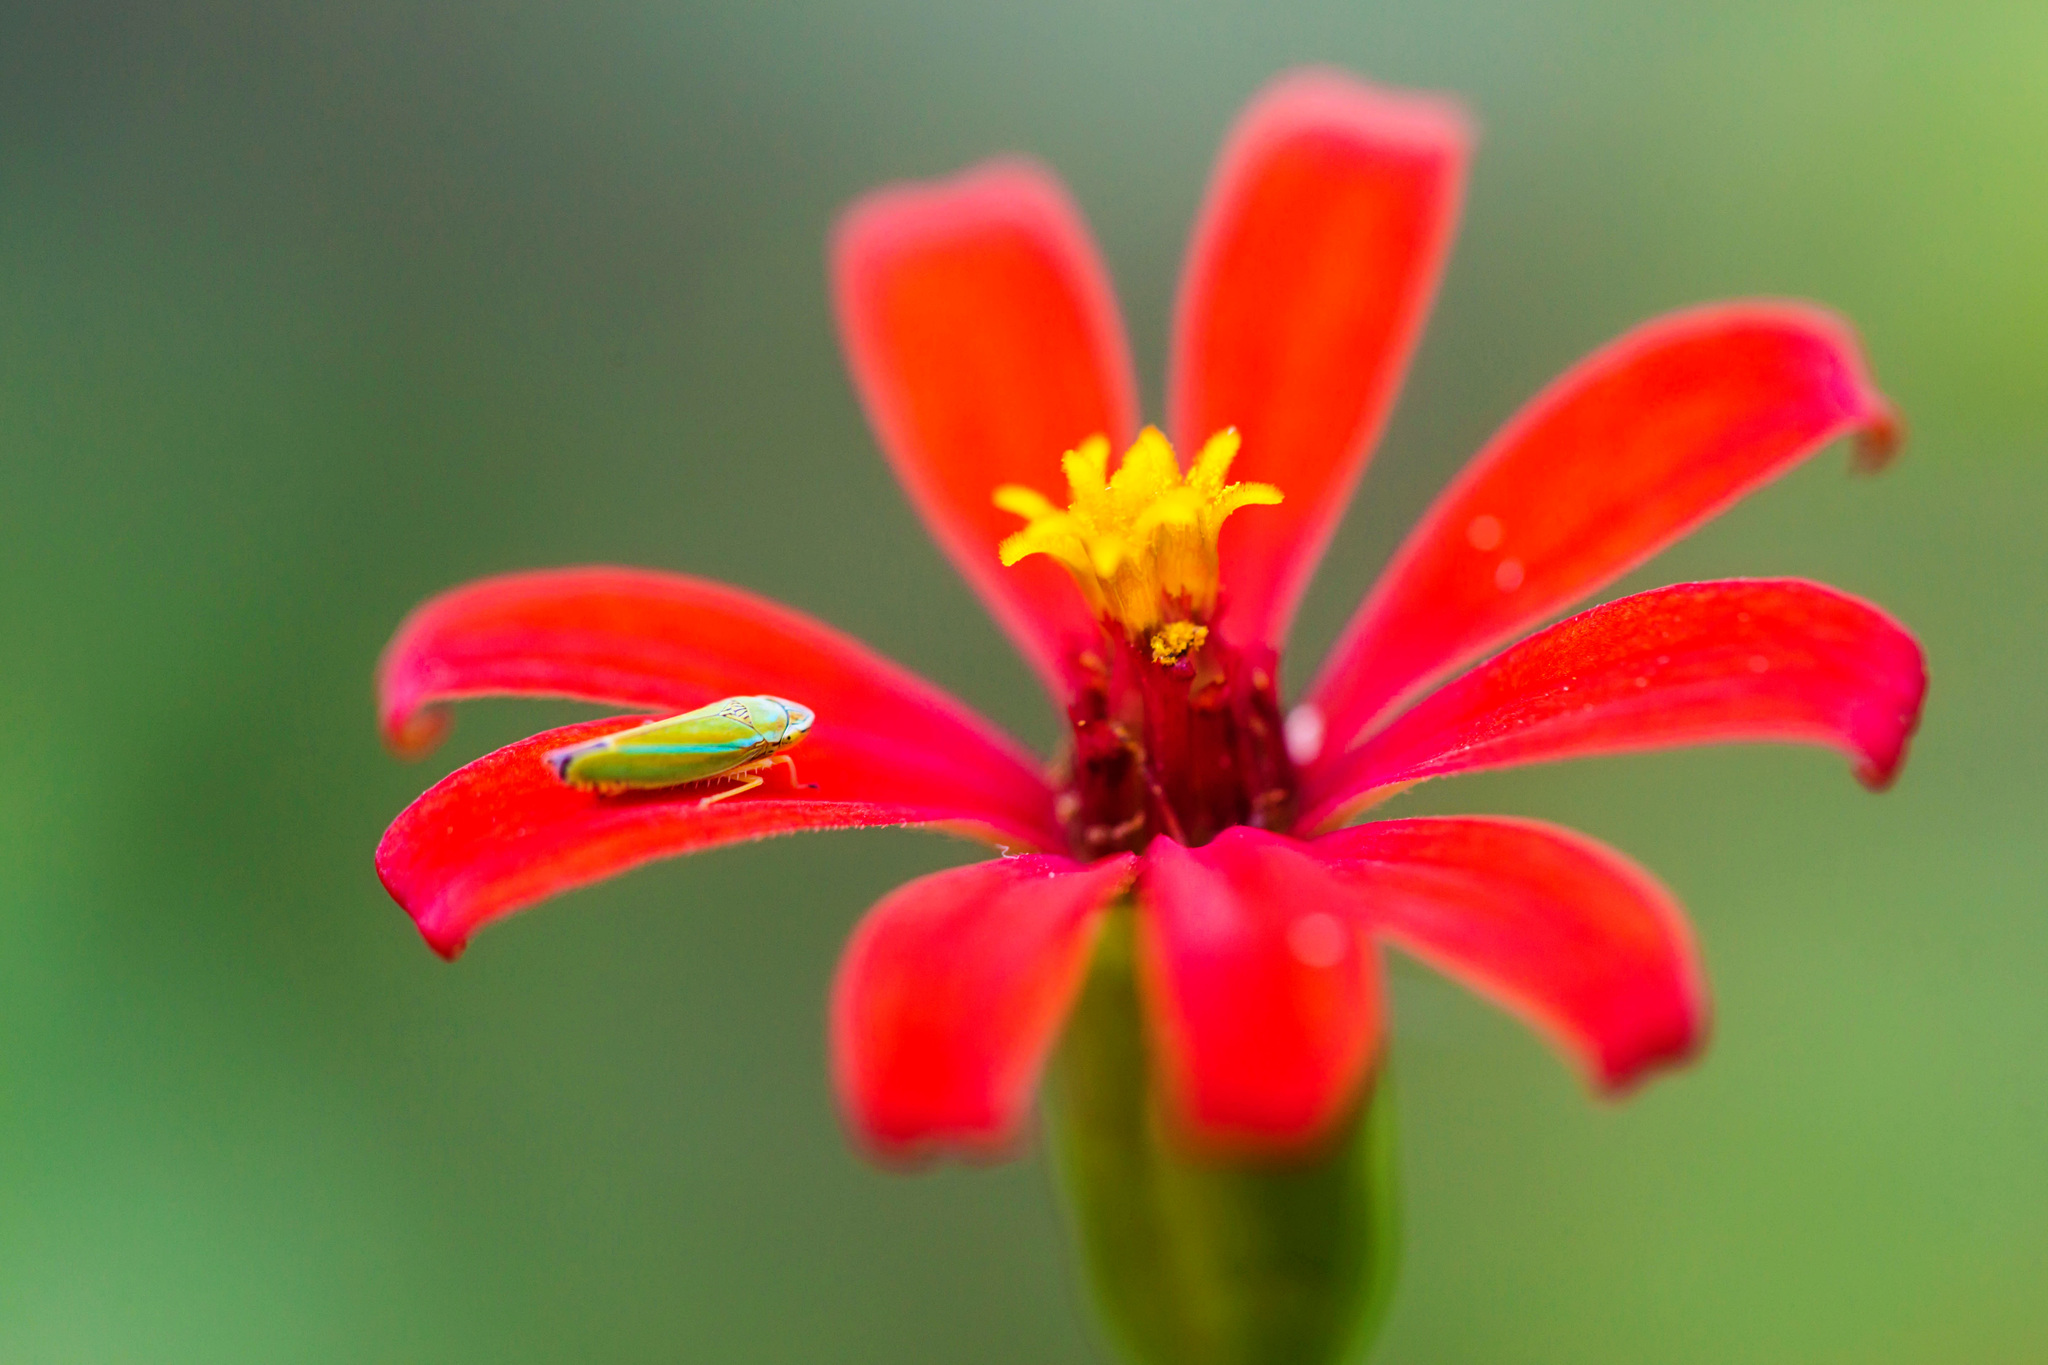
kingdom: Animalia
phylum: Arthropoda
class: Insecta
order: Hemiptera
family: Cicadellidae
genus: Graphocephala
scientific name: Graphocephala versuta
